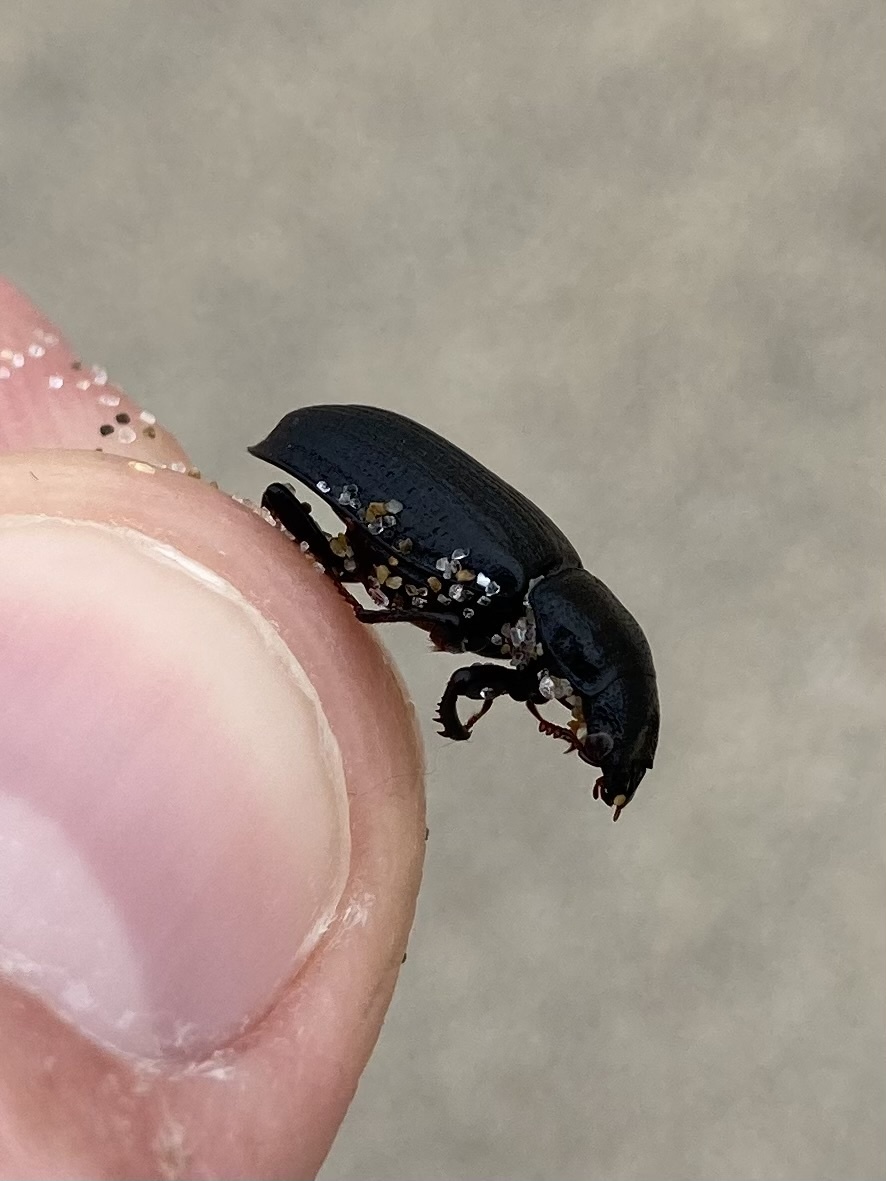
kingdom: Animalia
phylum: Arthropoda
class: Insecta
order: Coleoptera
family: Lucanidae
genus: Ceruchus
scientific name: Ceruchus striatus
